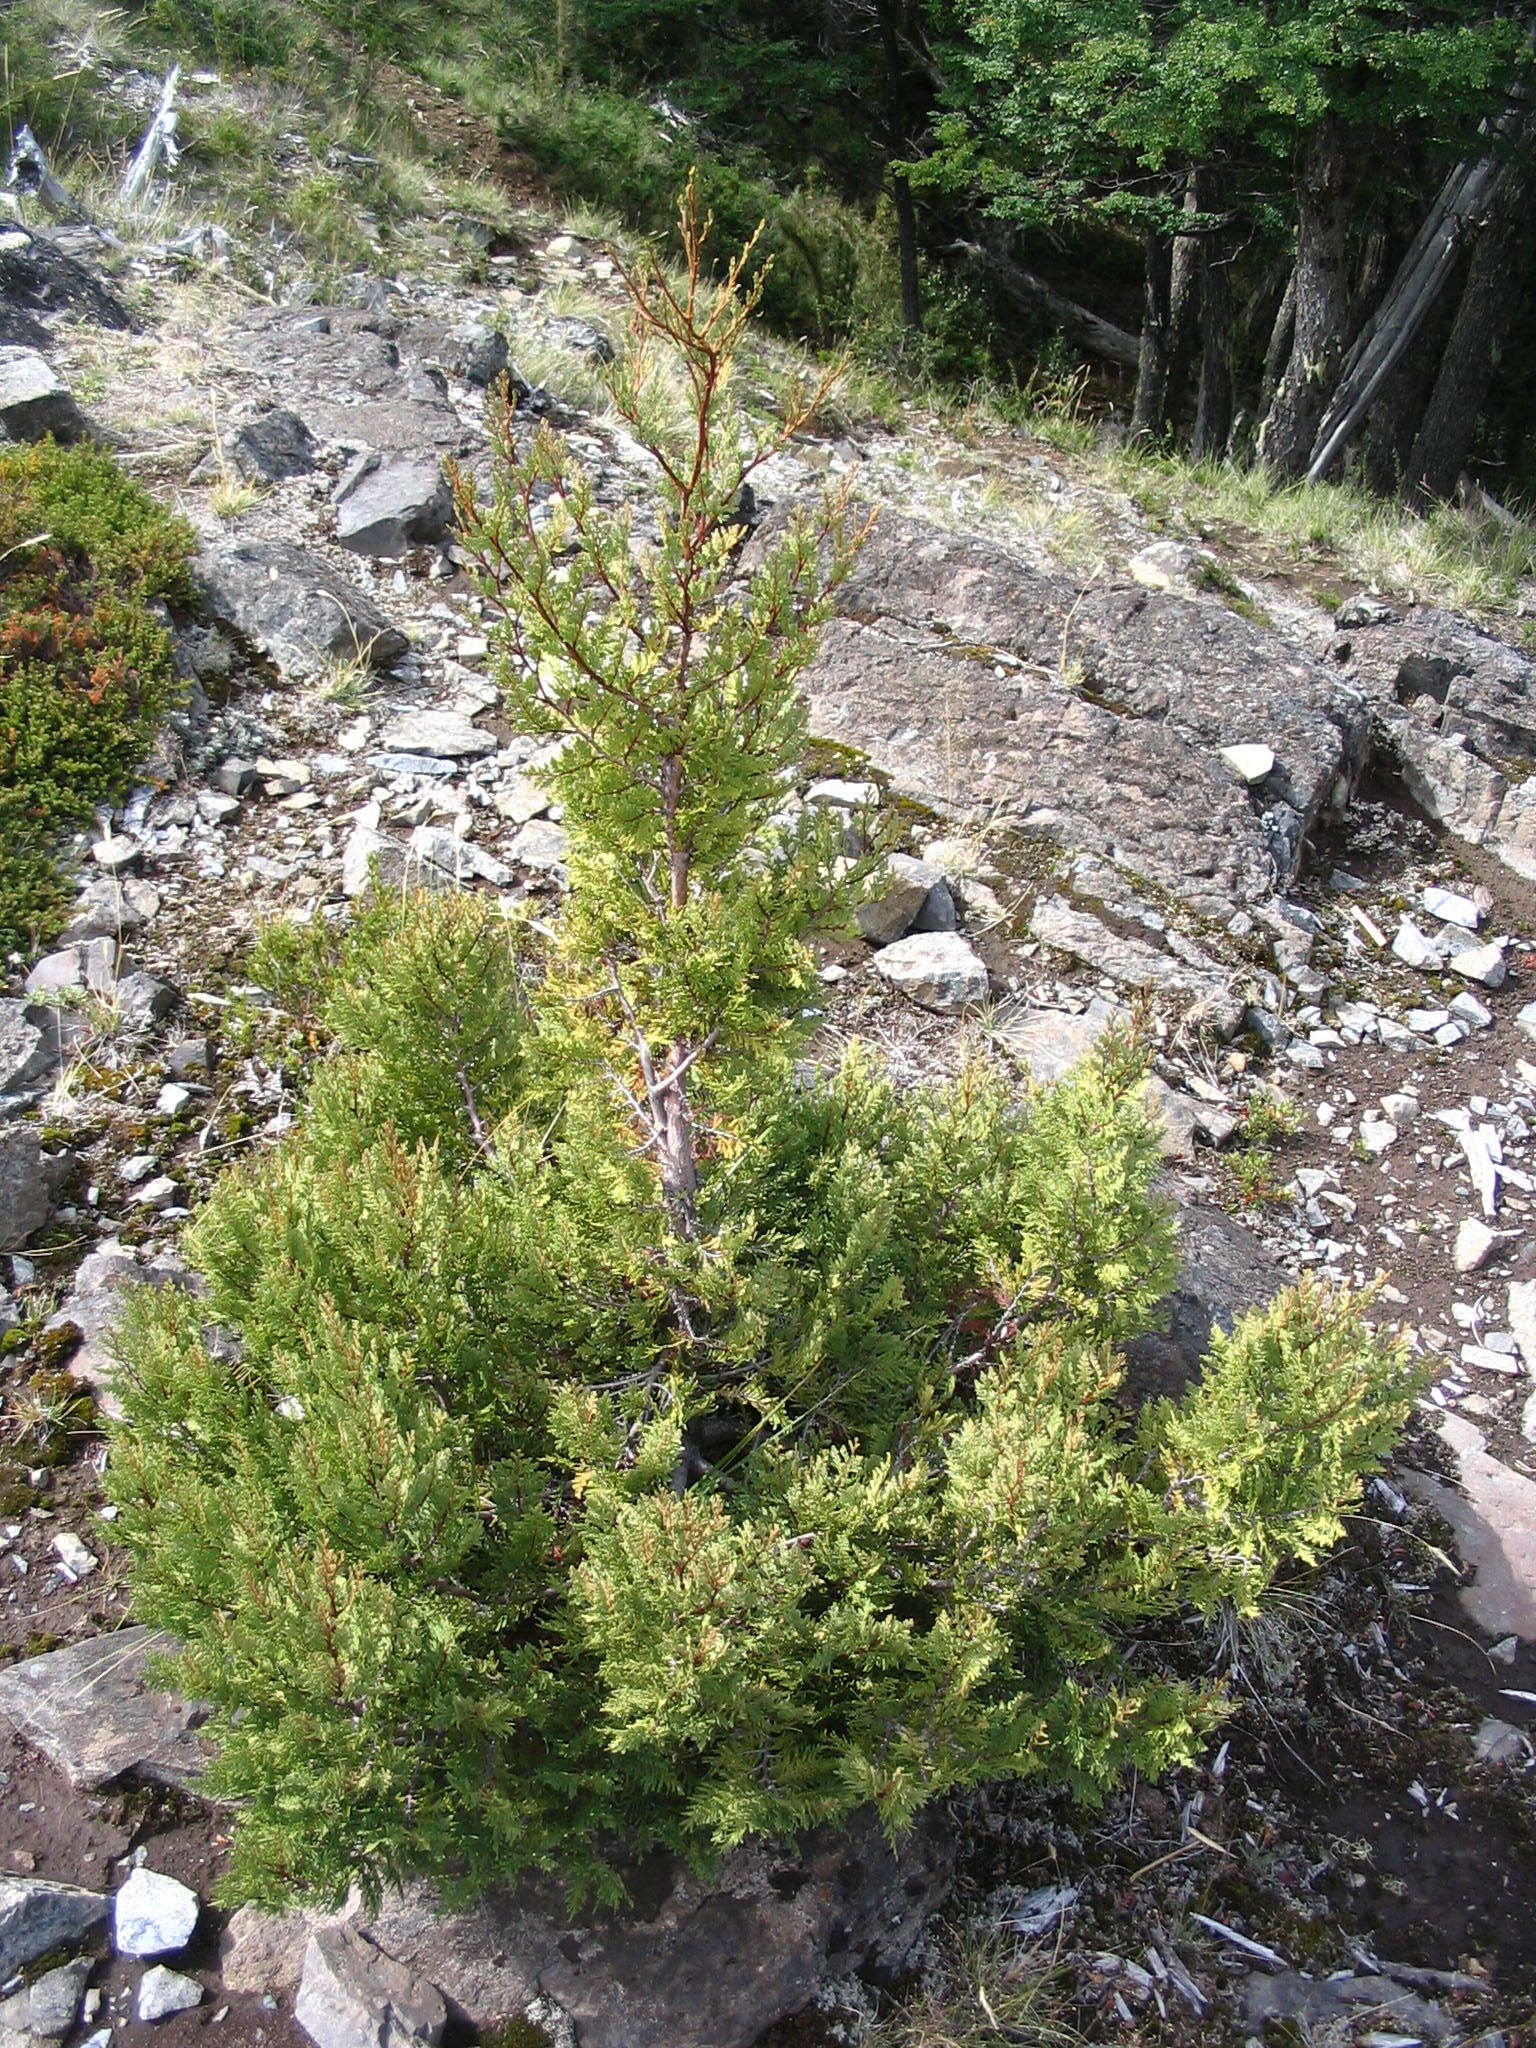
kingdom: Plantae
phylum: Tracheophyta
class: Pinopsida
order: Pinales
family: Cupressaceae
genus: Austrocedrus
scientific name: Austrocedrus chilensis
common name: Chilean incense-cedar
